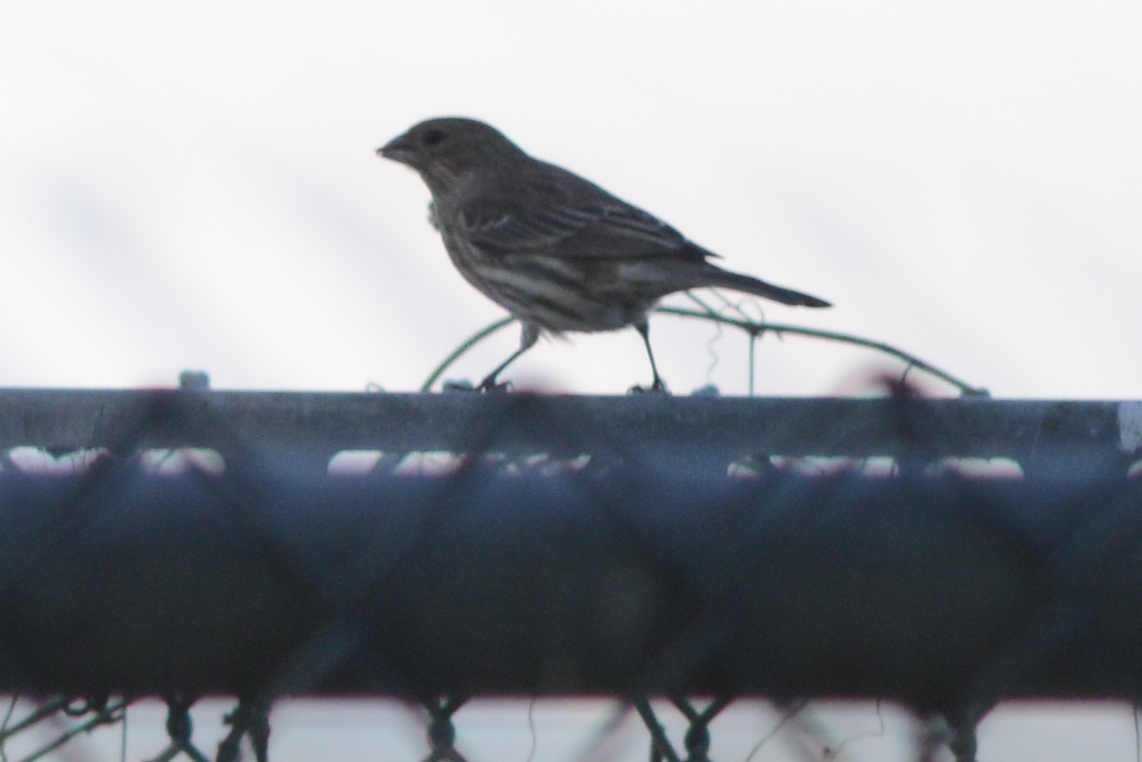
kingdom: Animalia
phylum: Chordata
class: Aves
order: Passeriformes
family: Fringillidae
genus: Haemorhous
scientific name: Haemorhous mexicanus
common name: House finch
